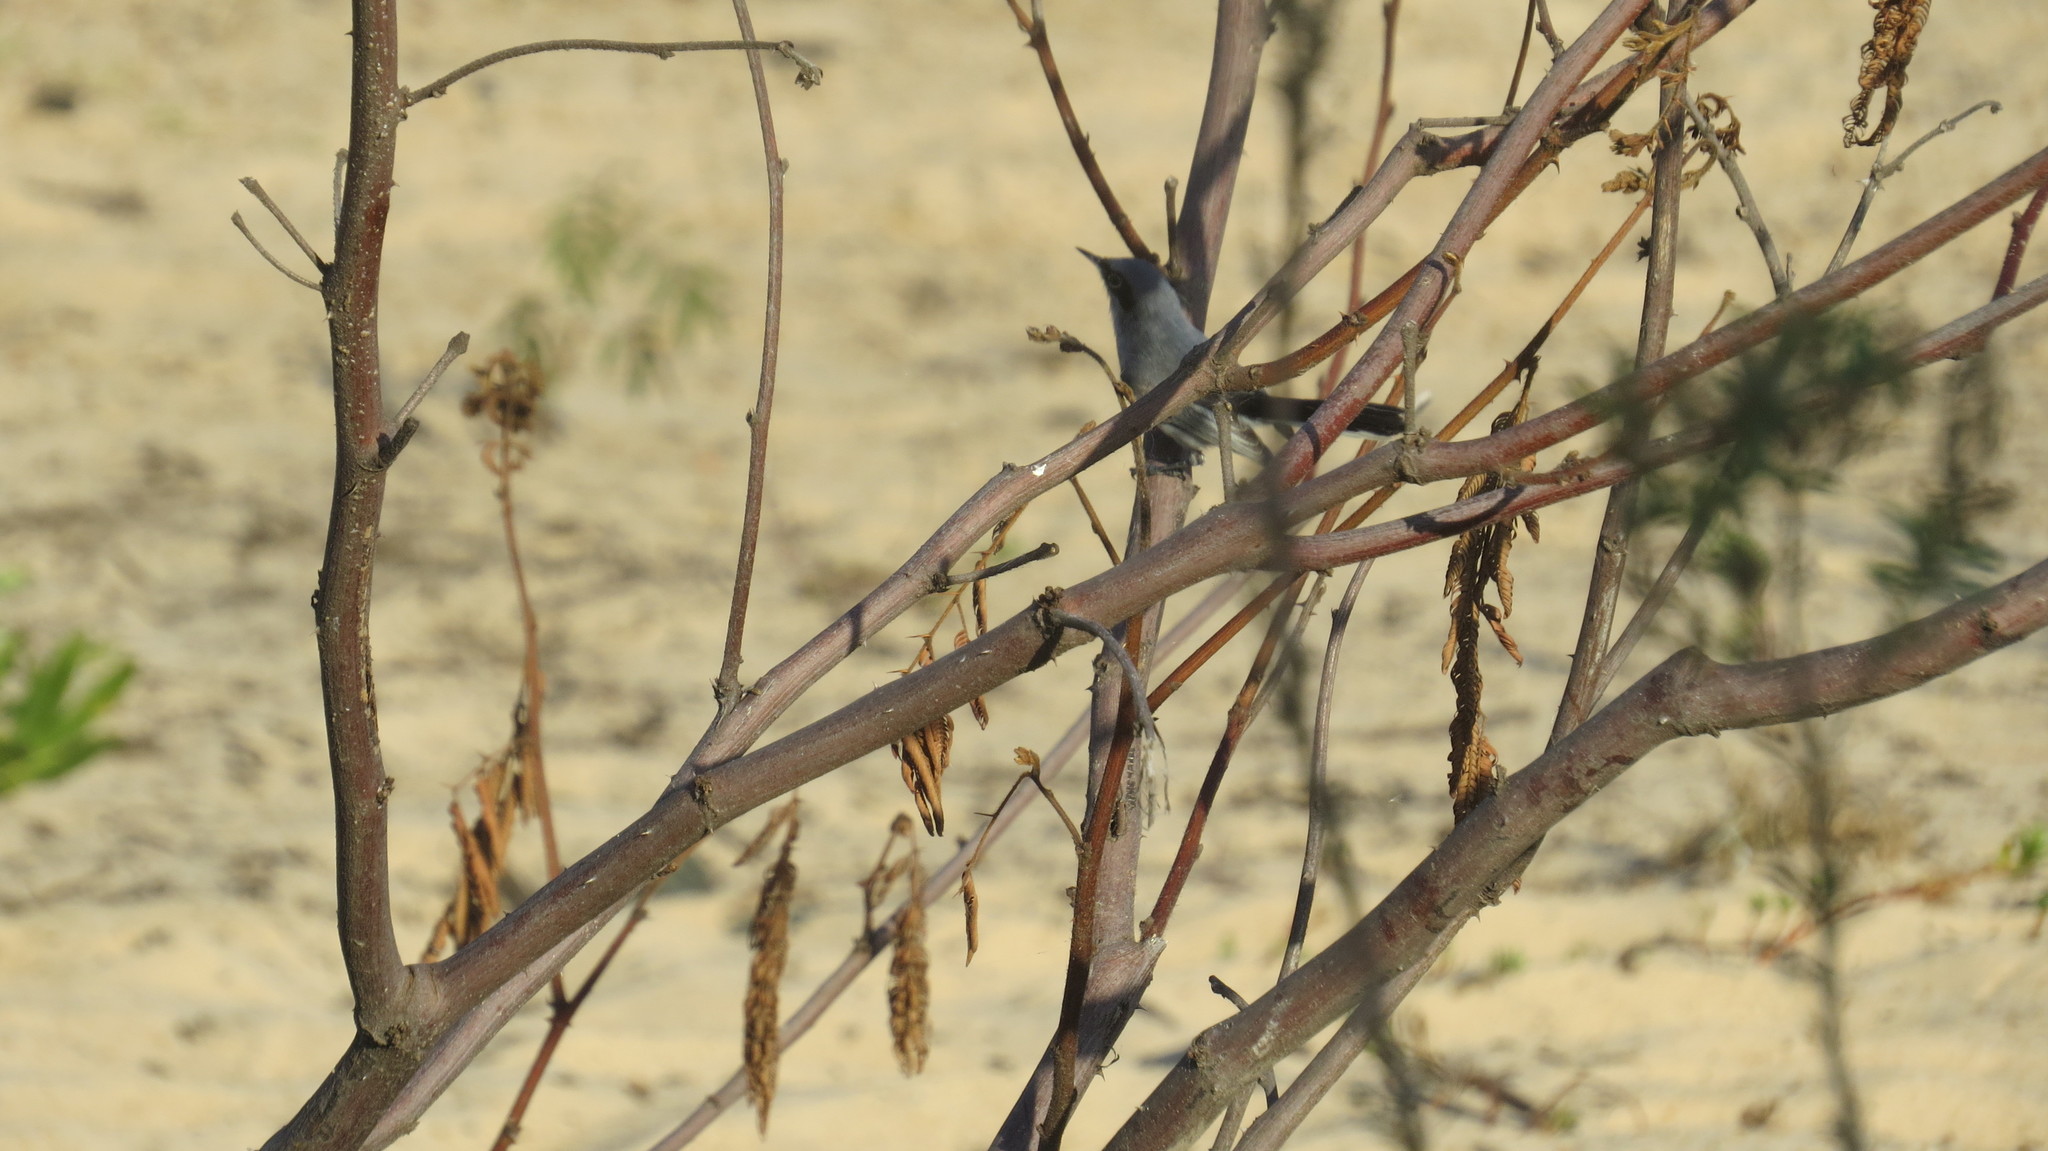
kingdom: Animalia
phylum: Chordata
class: Aves
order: Passeriformes
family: Polioptilidae
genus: Polioptila
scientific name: Polioptila dumicola
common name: Masked gnatcatcher
